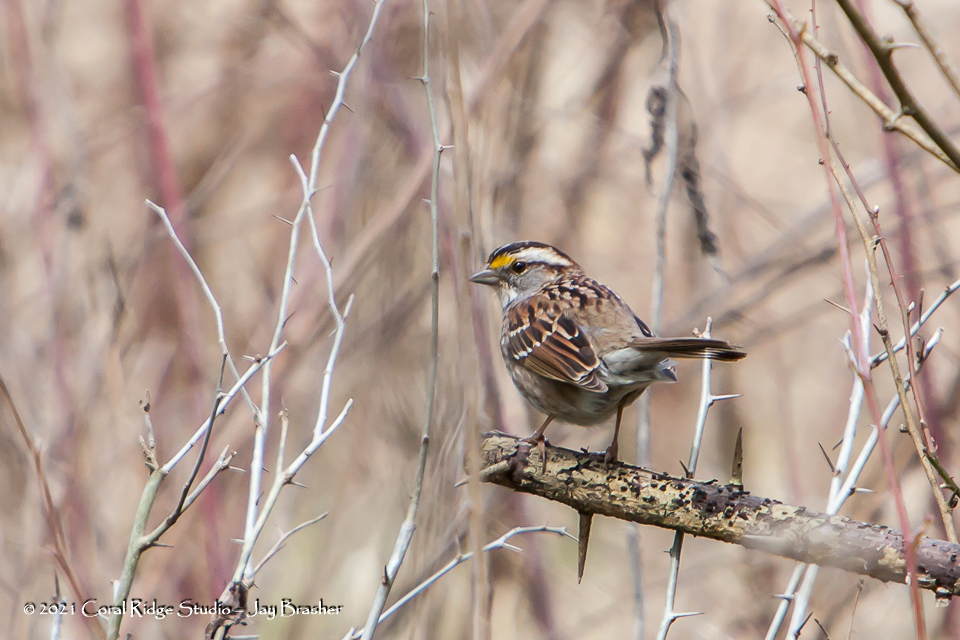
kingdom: Animalia
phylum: Chordata
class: Aves
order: Passeriformes
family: Passerellidae
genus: Zonotrichia
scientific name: Zonotrichia albicollis
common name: White-throated sparrow
